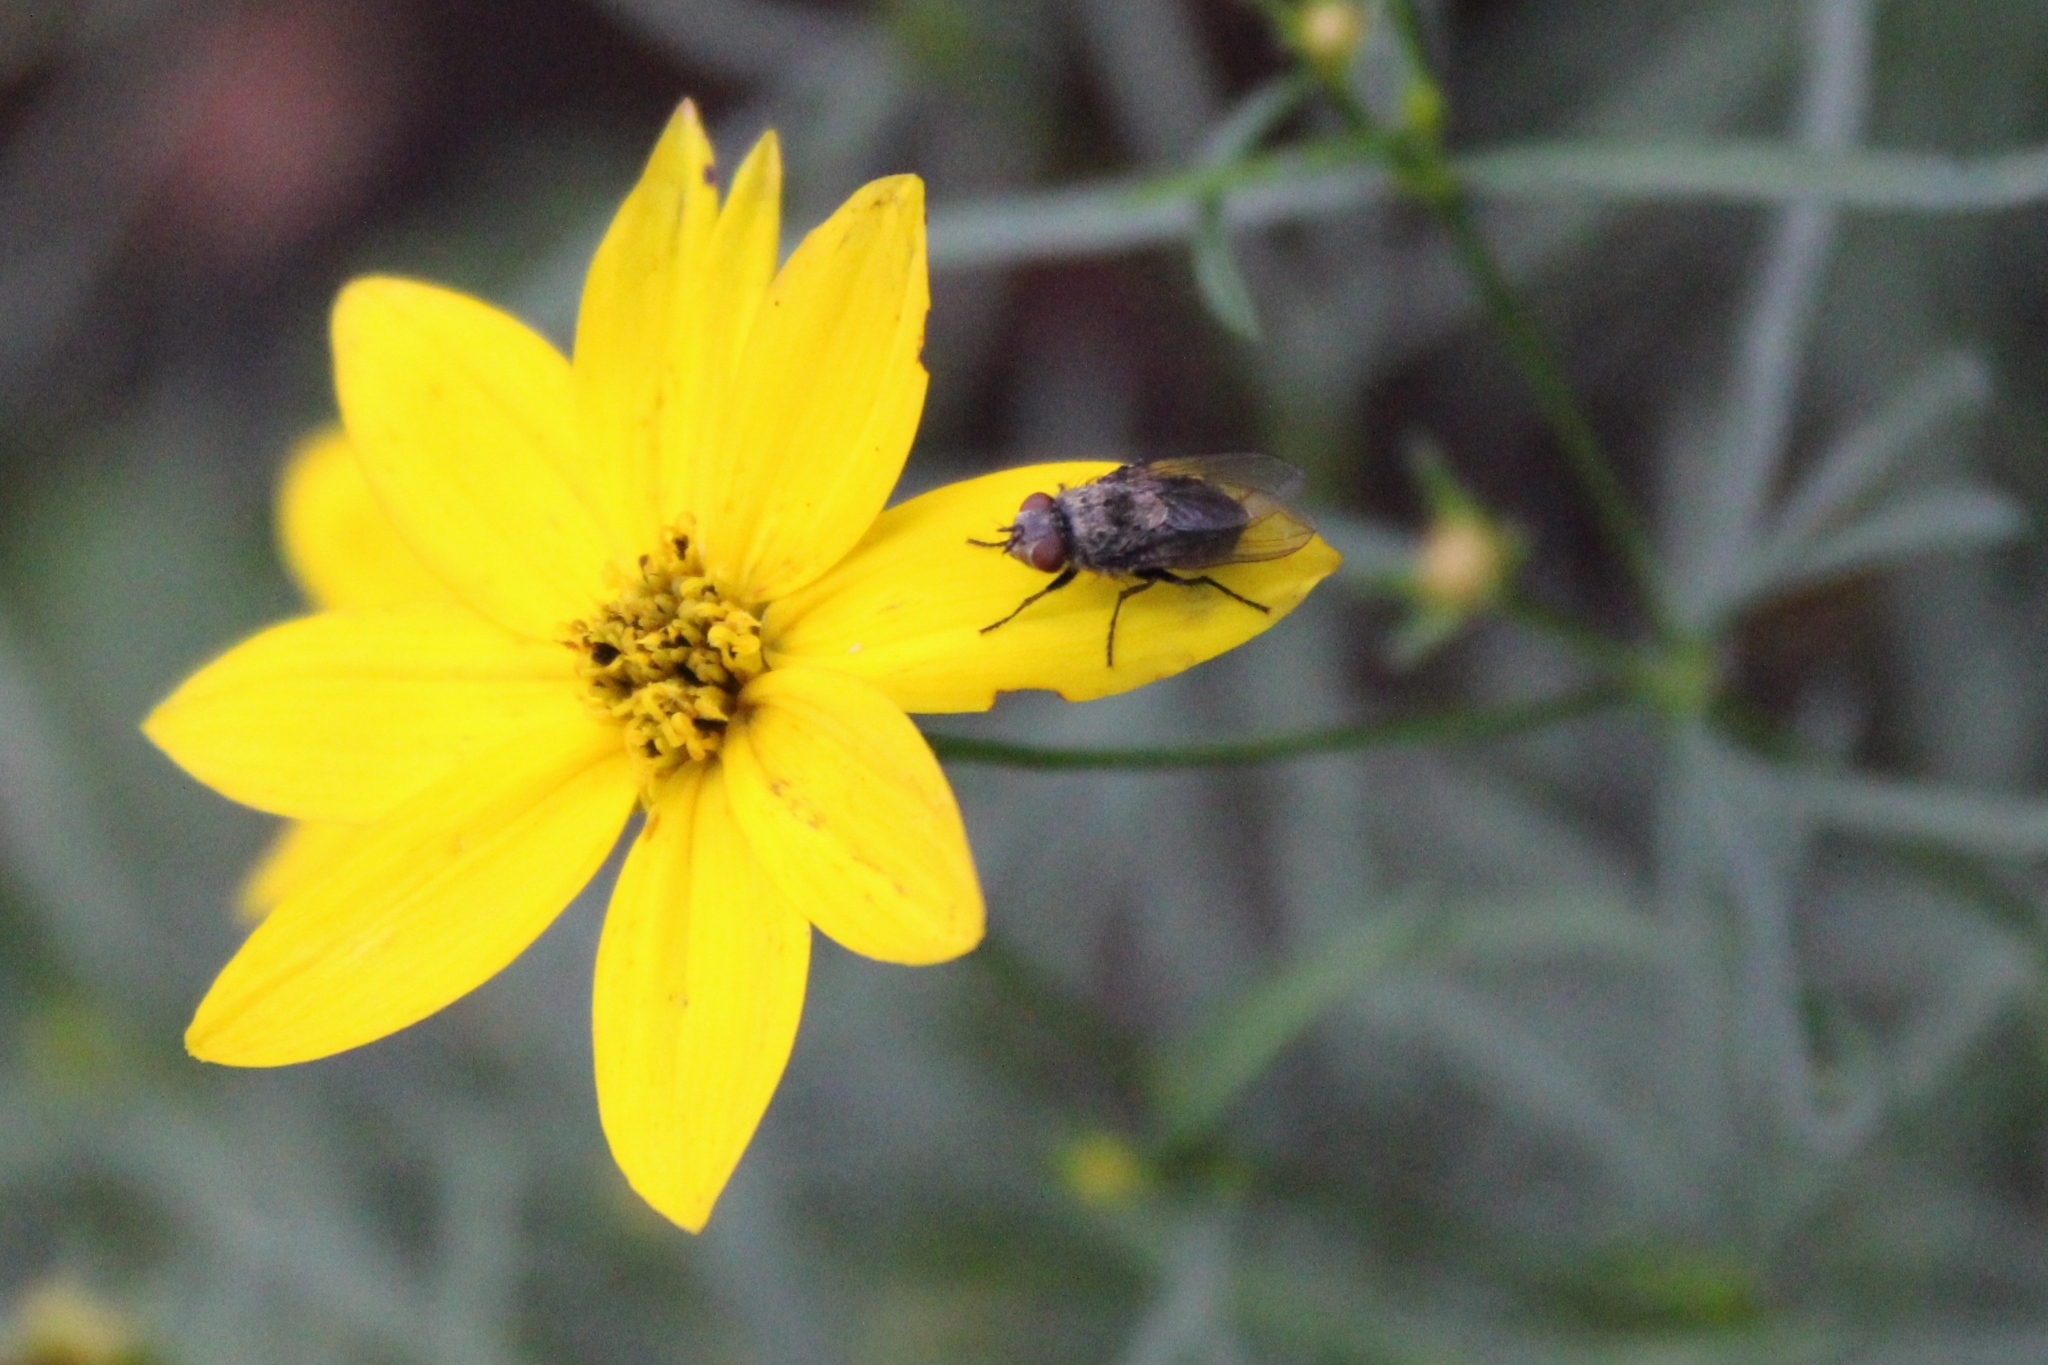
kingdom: Animalia
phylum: Arthropoda
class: Insecta
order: Diptera
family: Polleniidae
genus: Pollenia
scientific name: Pollenia
